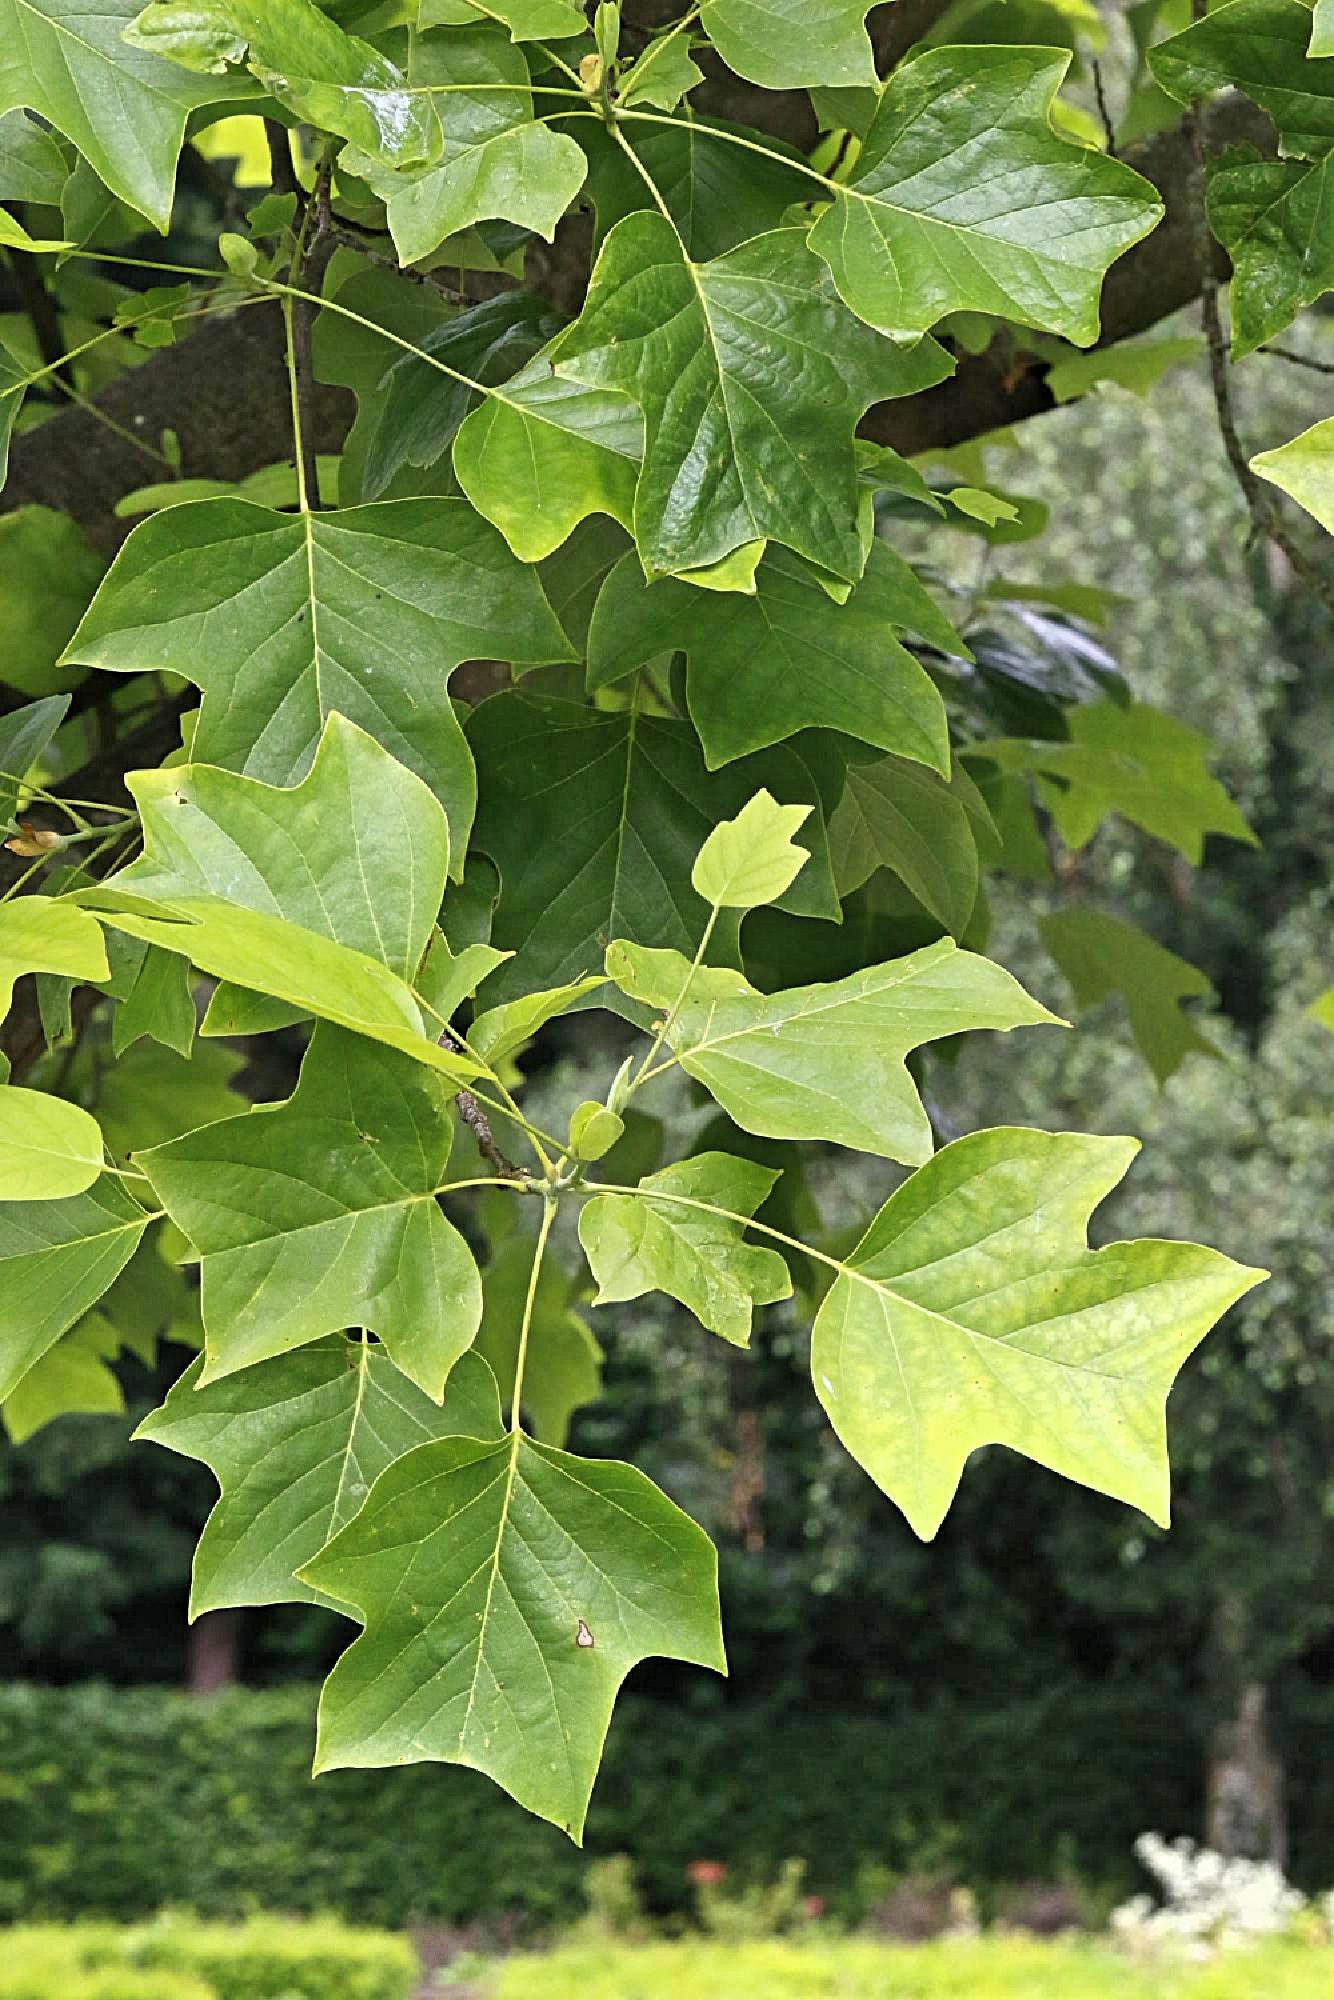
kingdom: Plantae
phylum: Tracheophyta
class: Magnoliopsida
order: Magnoliales
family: Magnoliaceae
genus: Liriodendron
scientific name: Liriodendron tulipifera
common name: Tulip tree
